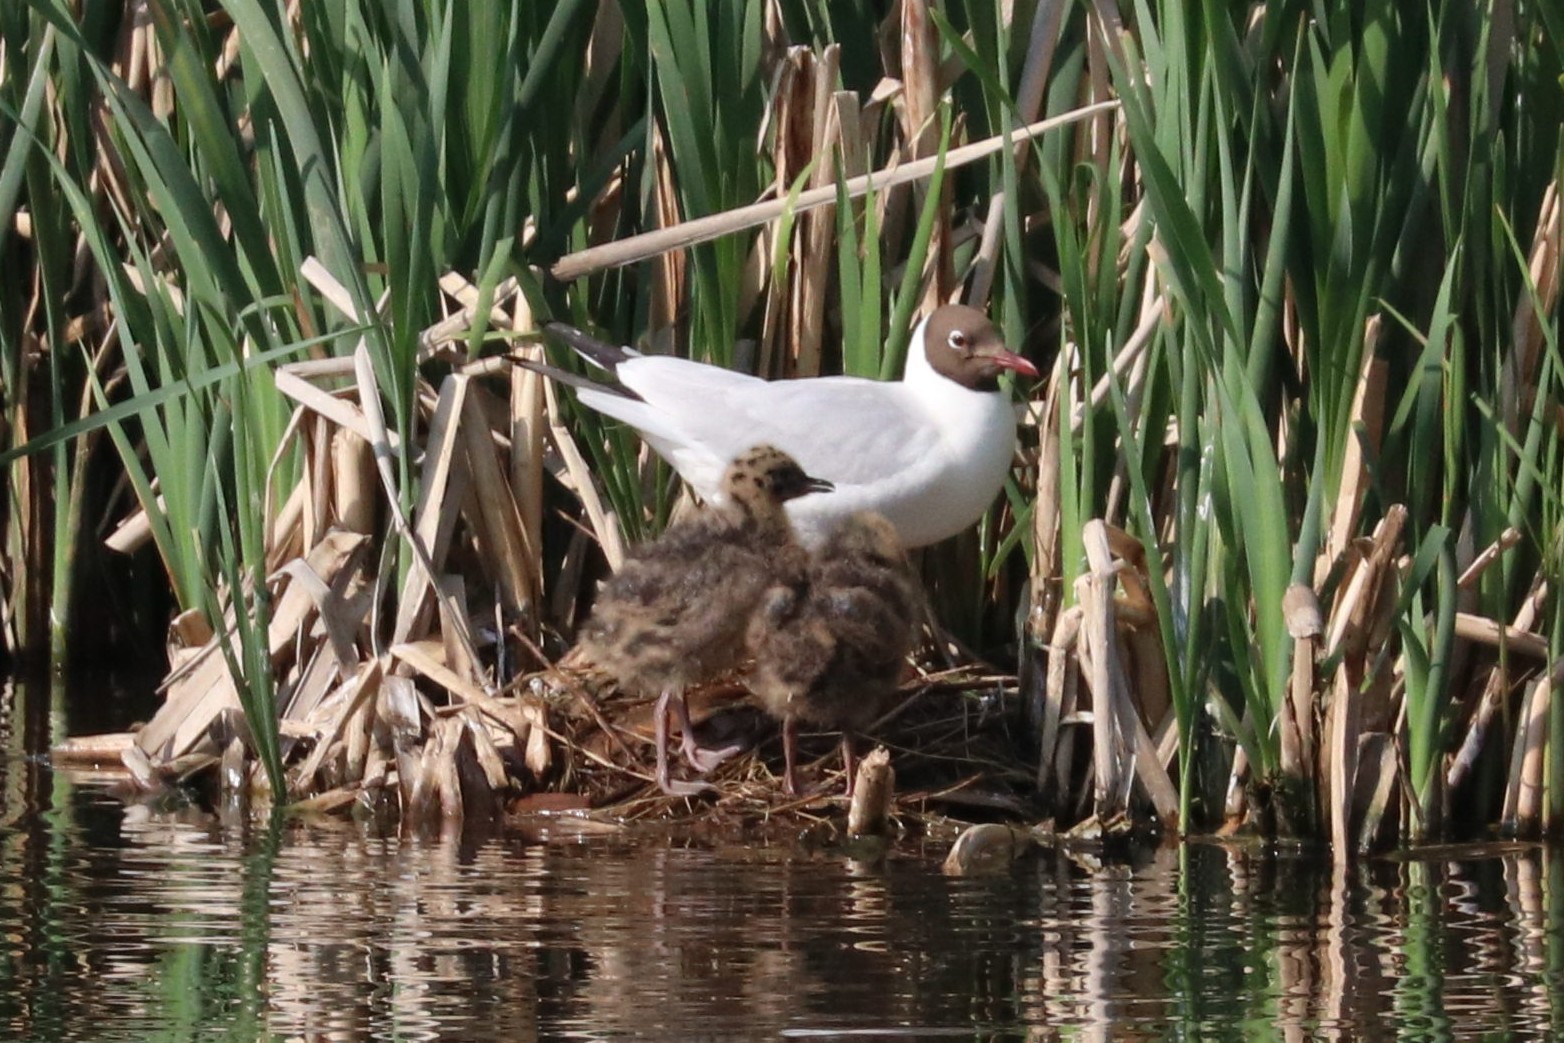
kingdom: Animalia
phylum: Chordata
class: Aves
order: Charadriiformes
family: Laridae
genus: Chroicocephalus
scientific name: Chroicocephalus ridibundus
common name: Black-headed gull
